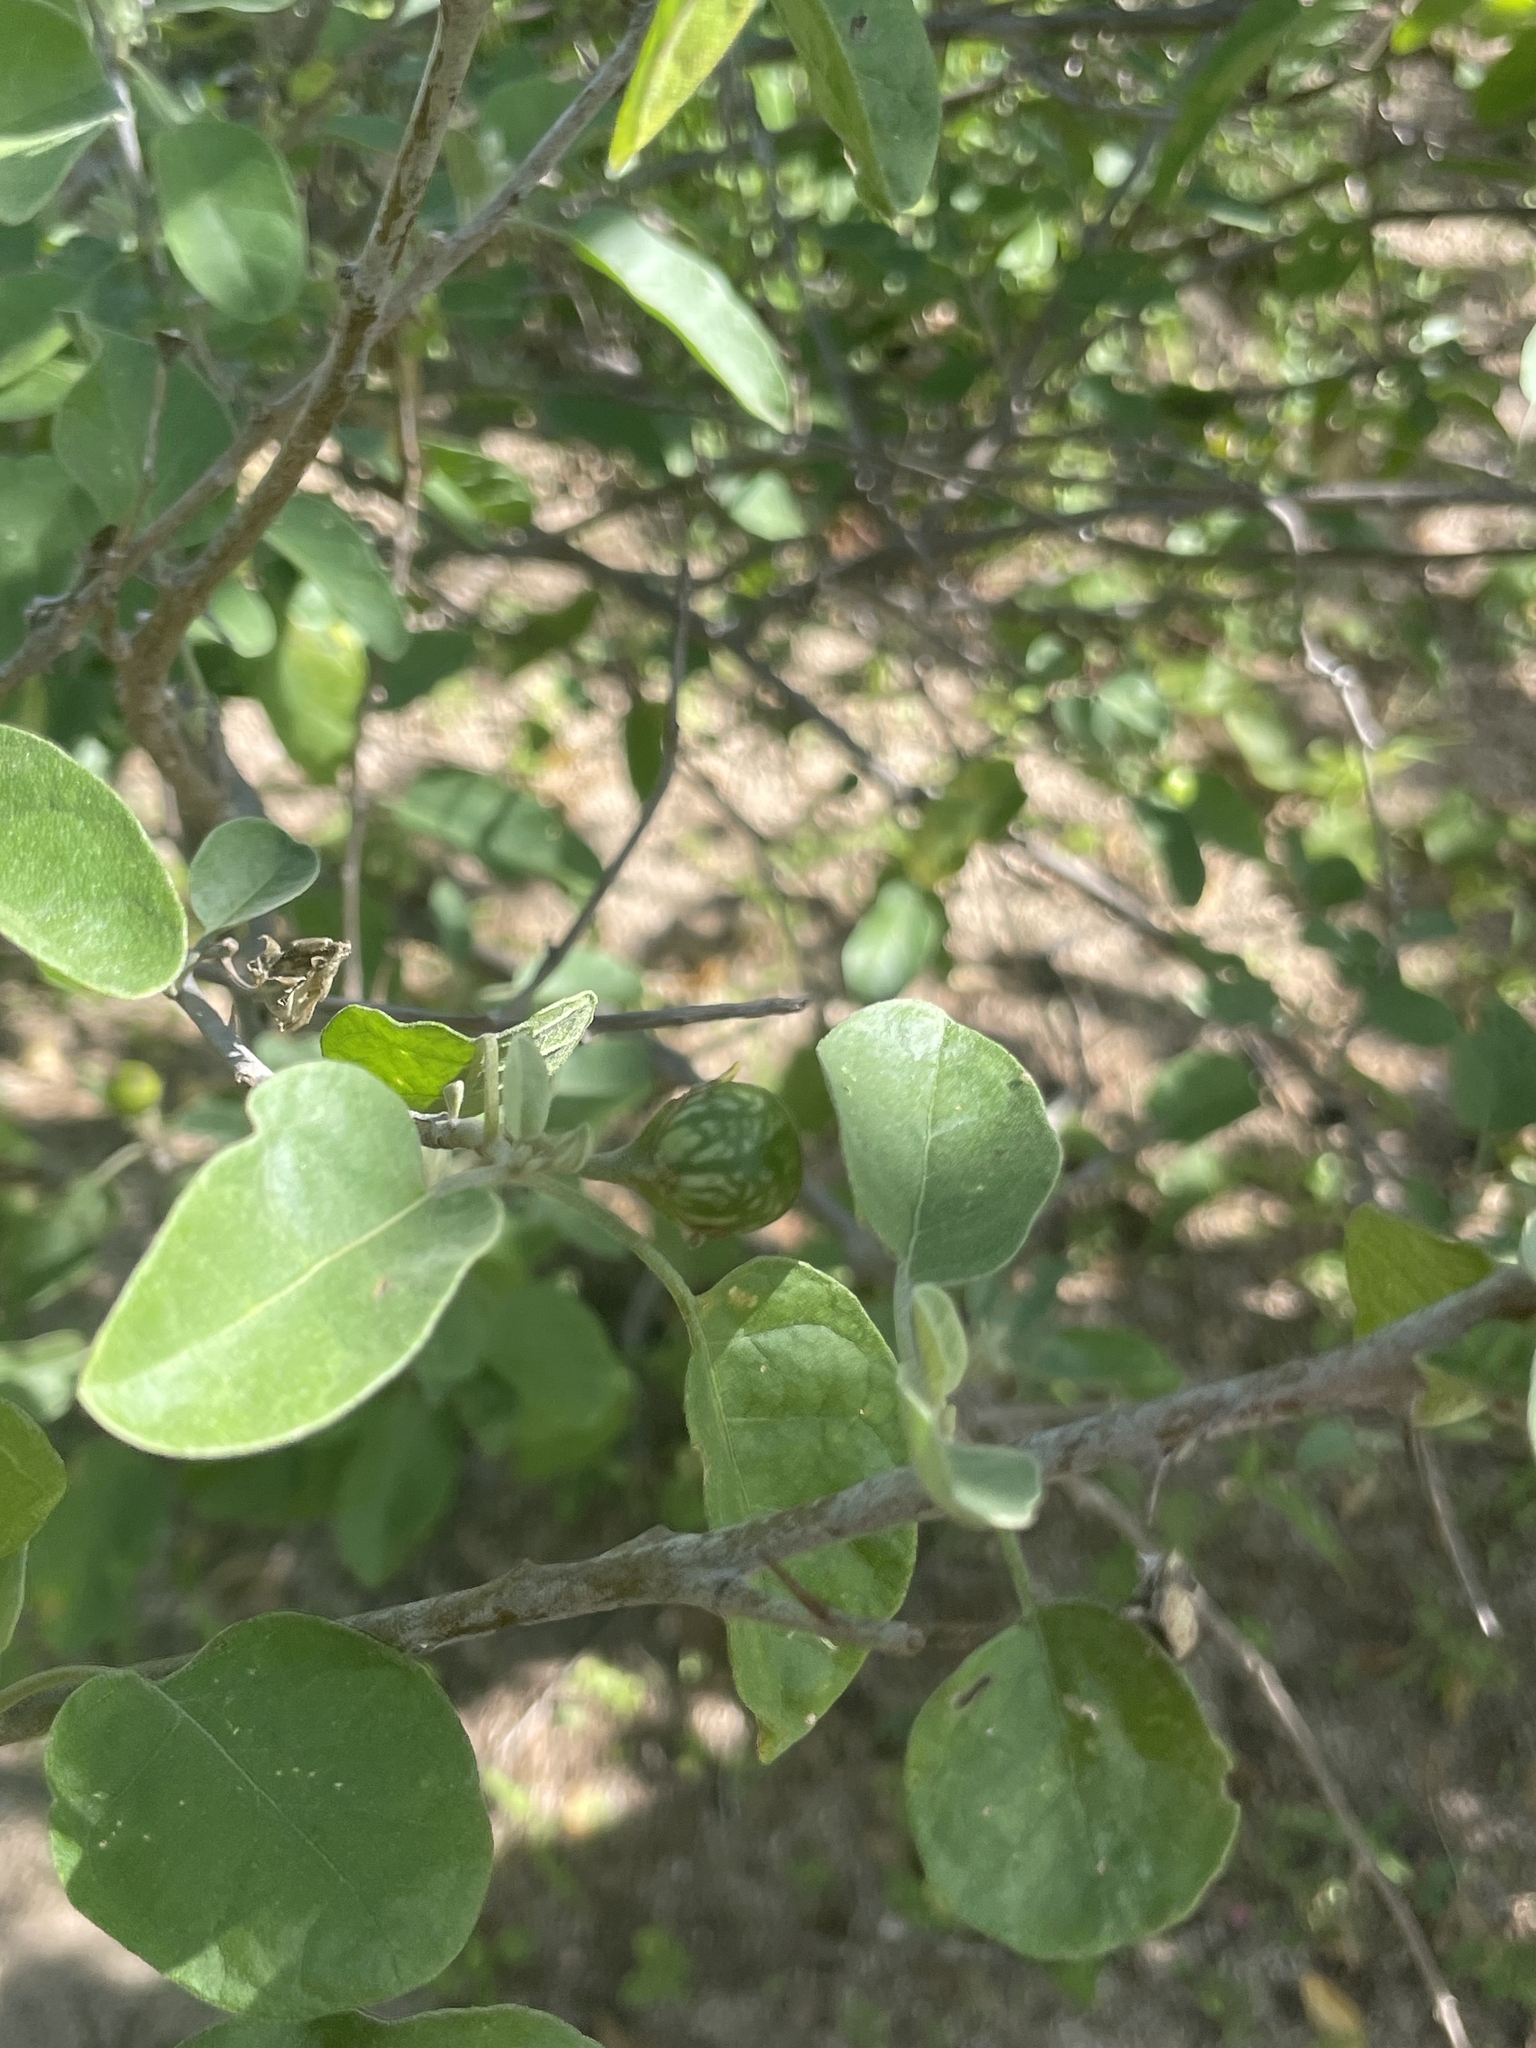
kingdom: Plantae
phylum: Tracheophyta
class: Magnoliopsida
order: Solanales
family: Solanaceae
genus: Solanum
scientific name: Solanum hindsianum
